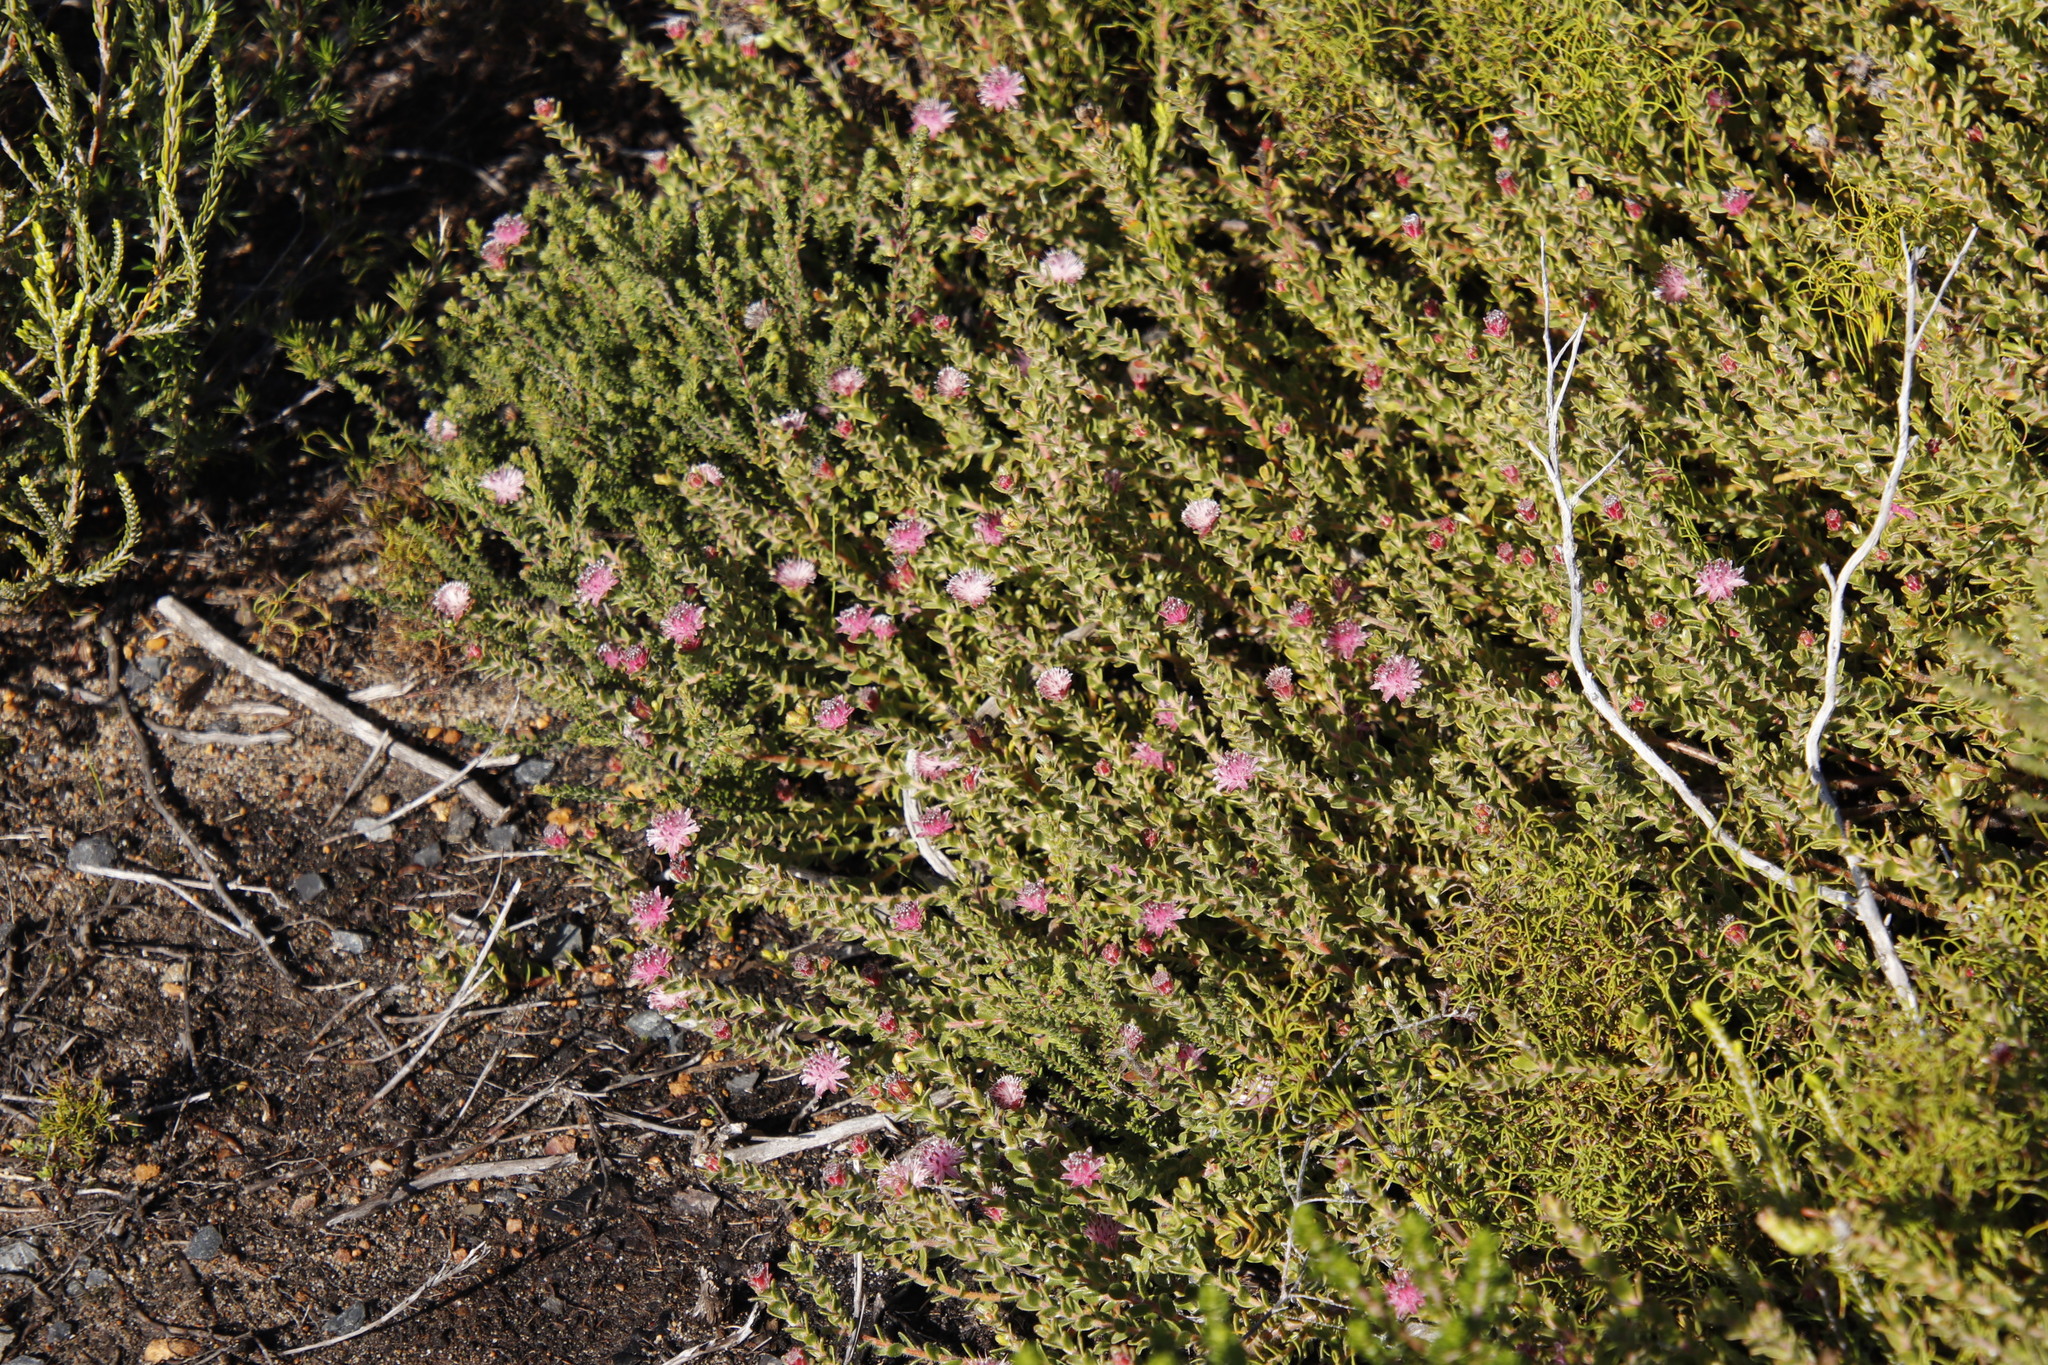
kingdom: Plantae
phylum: Tracheophyta
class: Magnoliopsida
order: Proteales
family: Proteaceae
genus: Diastella
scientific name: Diastella divaricata
